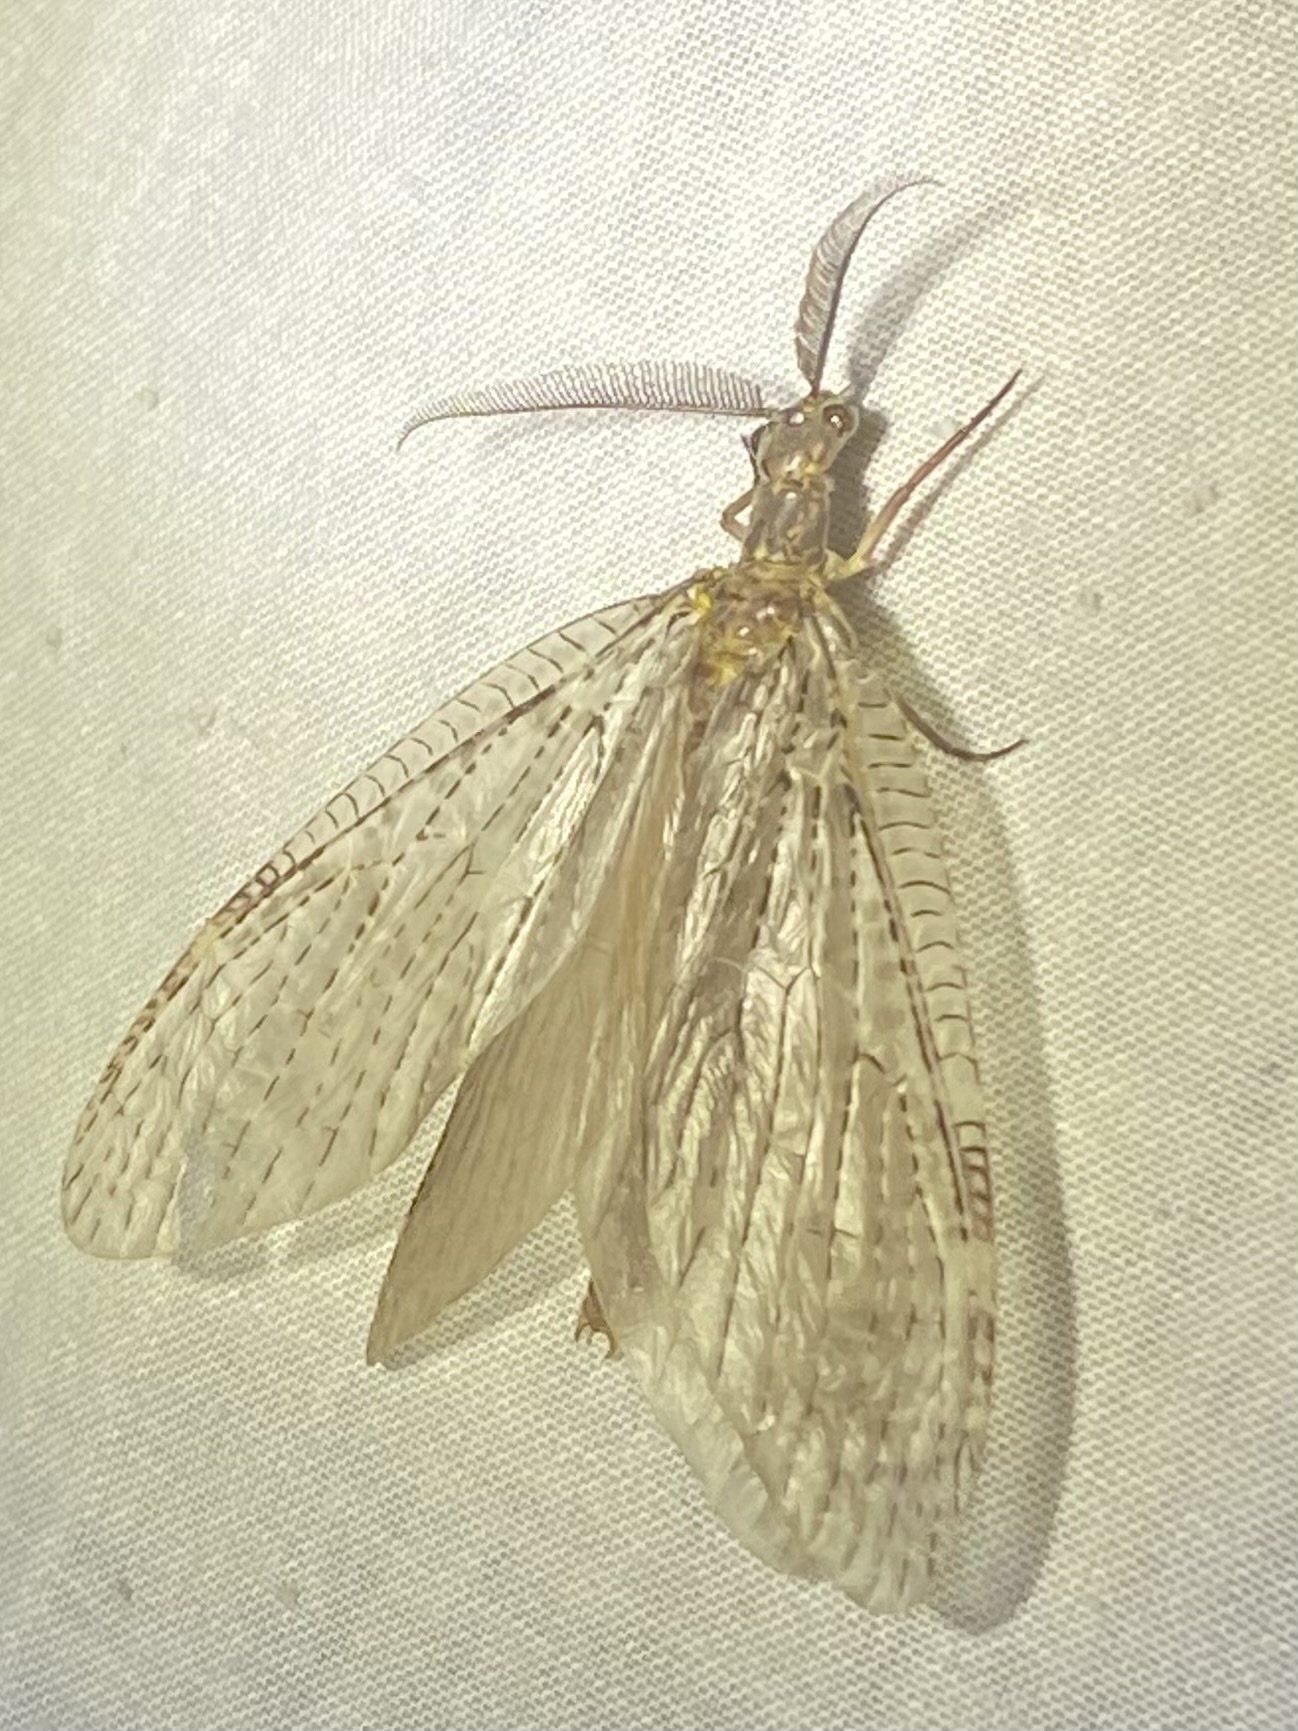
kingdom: Animalia
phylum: Arthropoda
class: Insecta
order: Megaloptera
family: Corydalidae
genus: Chauliodes
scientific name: Chauliodes pectinicornis
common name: Summer fishfly
